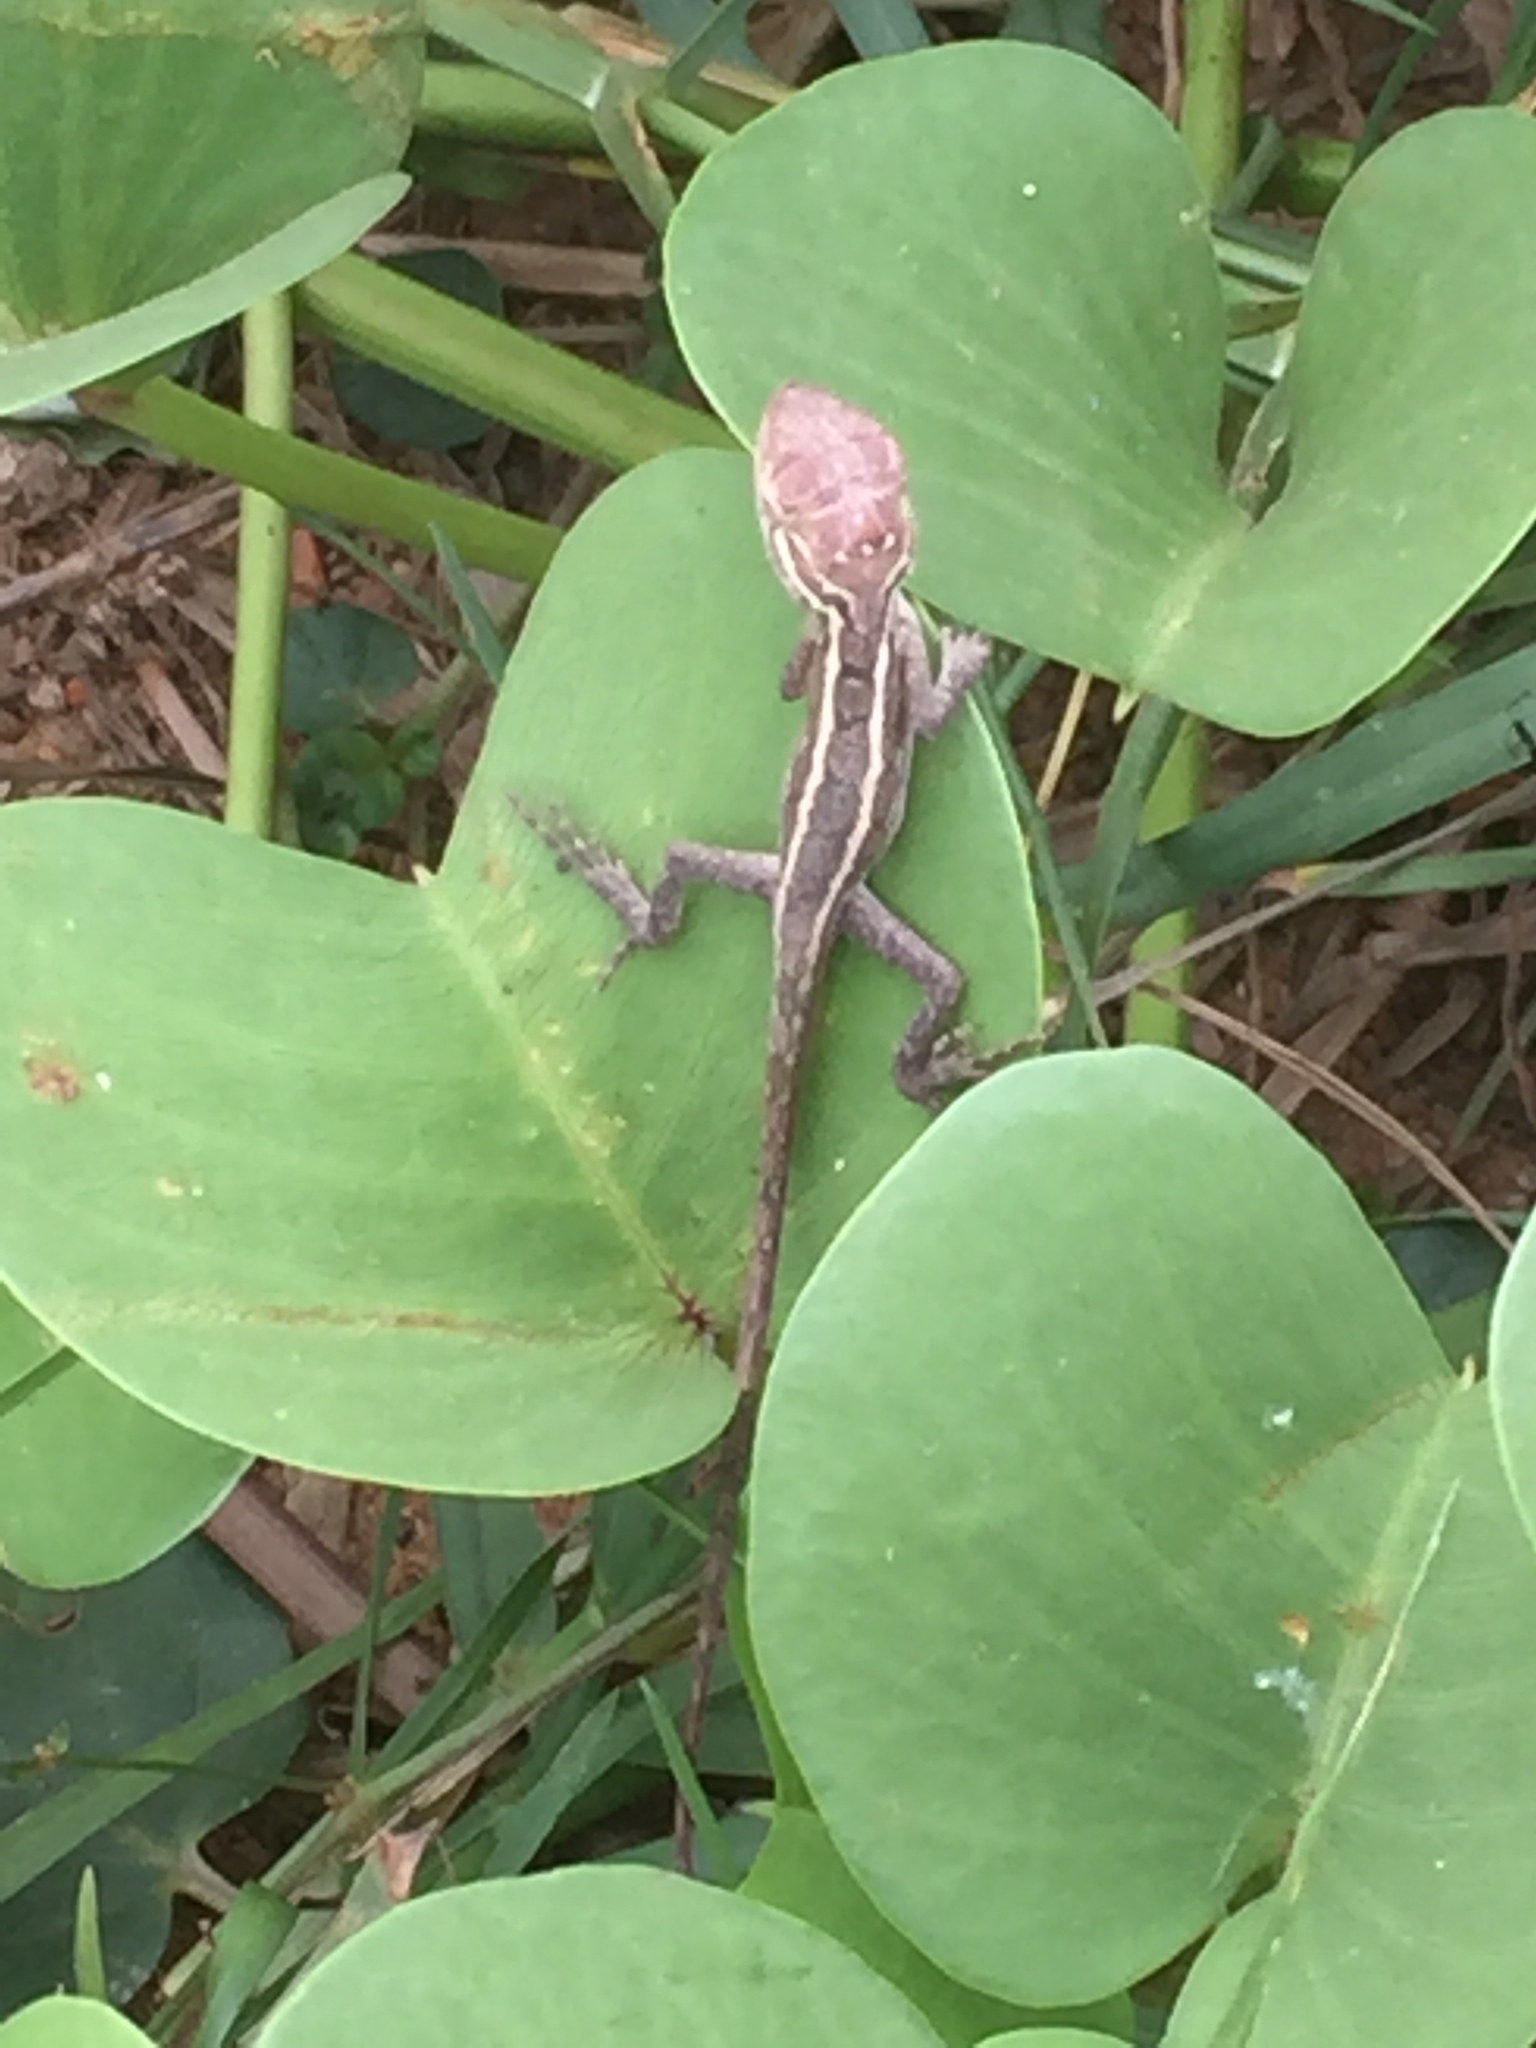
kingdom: Animalia
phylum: Chordata
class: Squamata
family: Agamidae
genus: Calotes
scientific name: Calotes versicolor
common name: Oriental garden lizard
